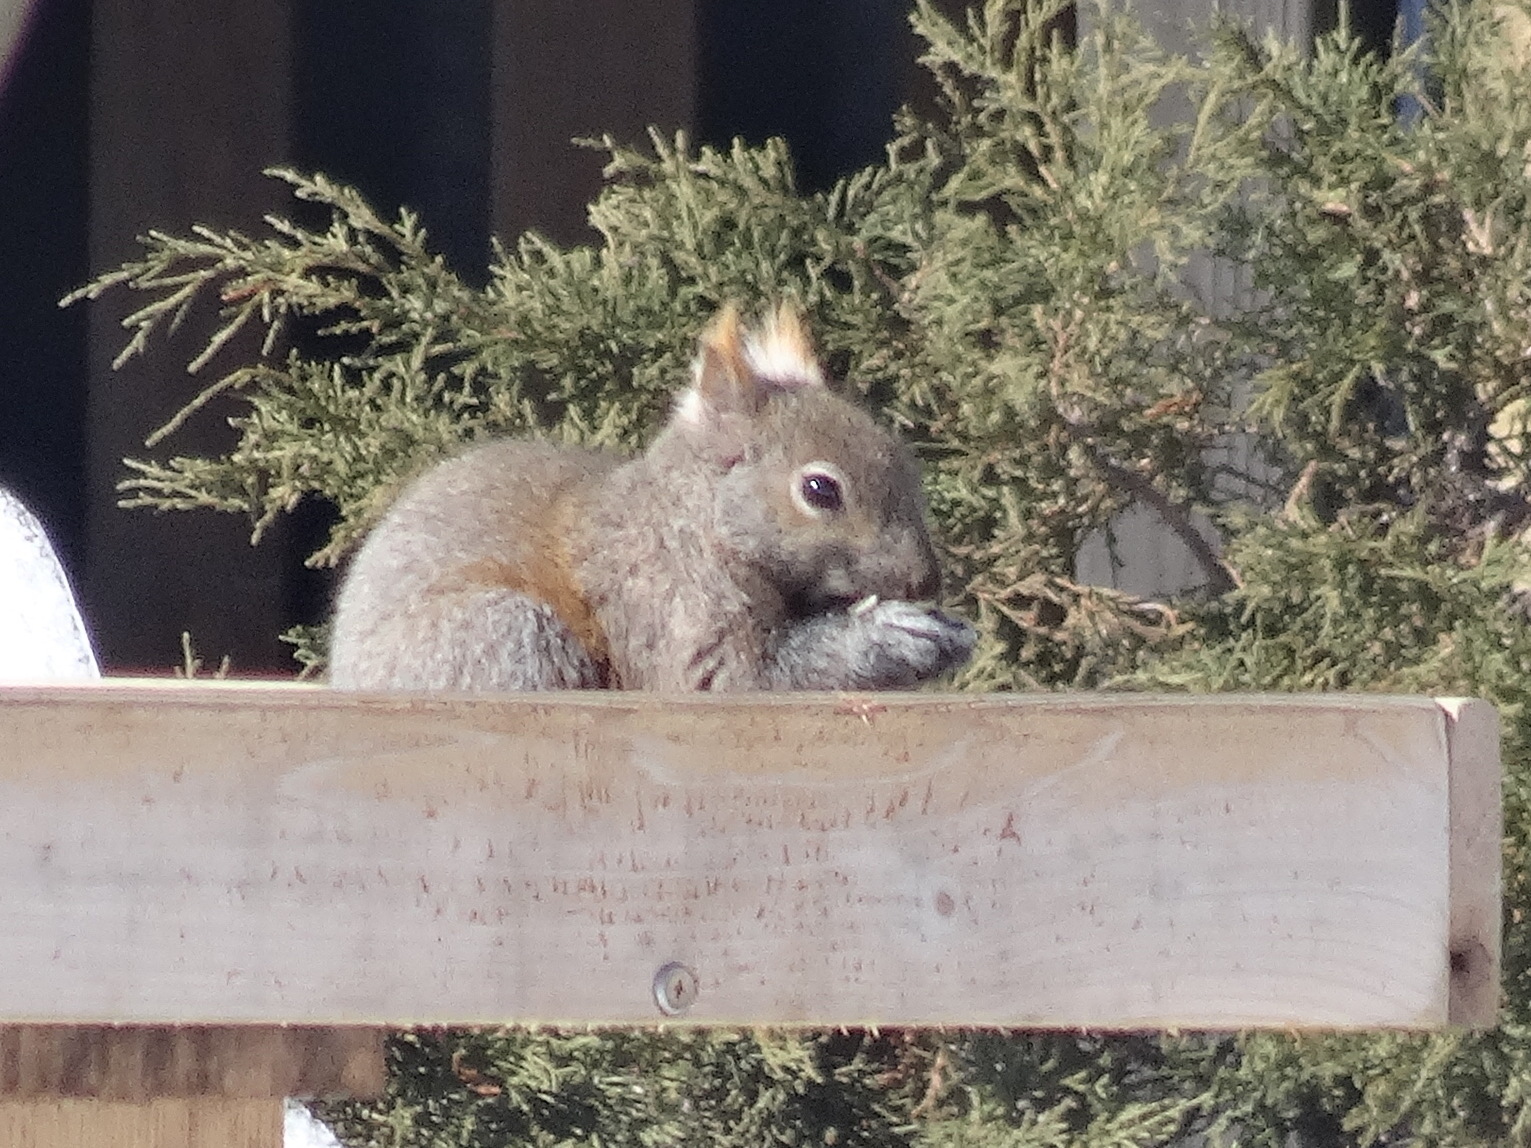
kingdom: Animalia
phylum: Chordata
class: Mammalia
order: Rodentia
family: Sciuridae
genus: Sciurus
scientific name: Sciurus carolinensis
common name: Eastern gray squirrel
